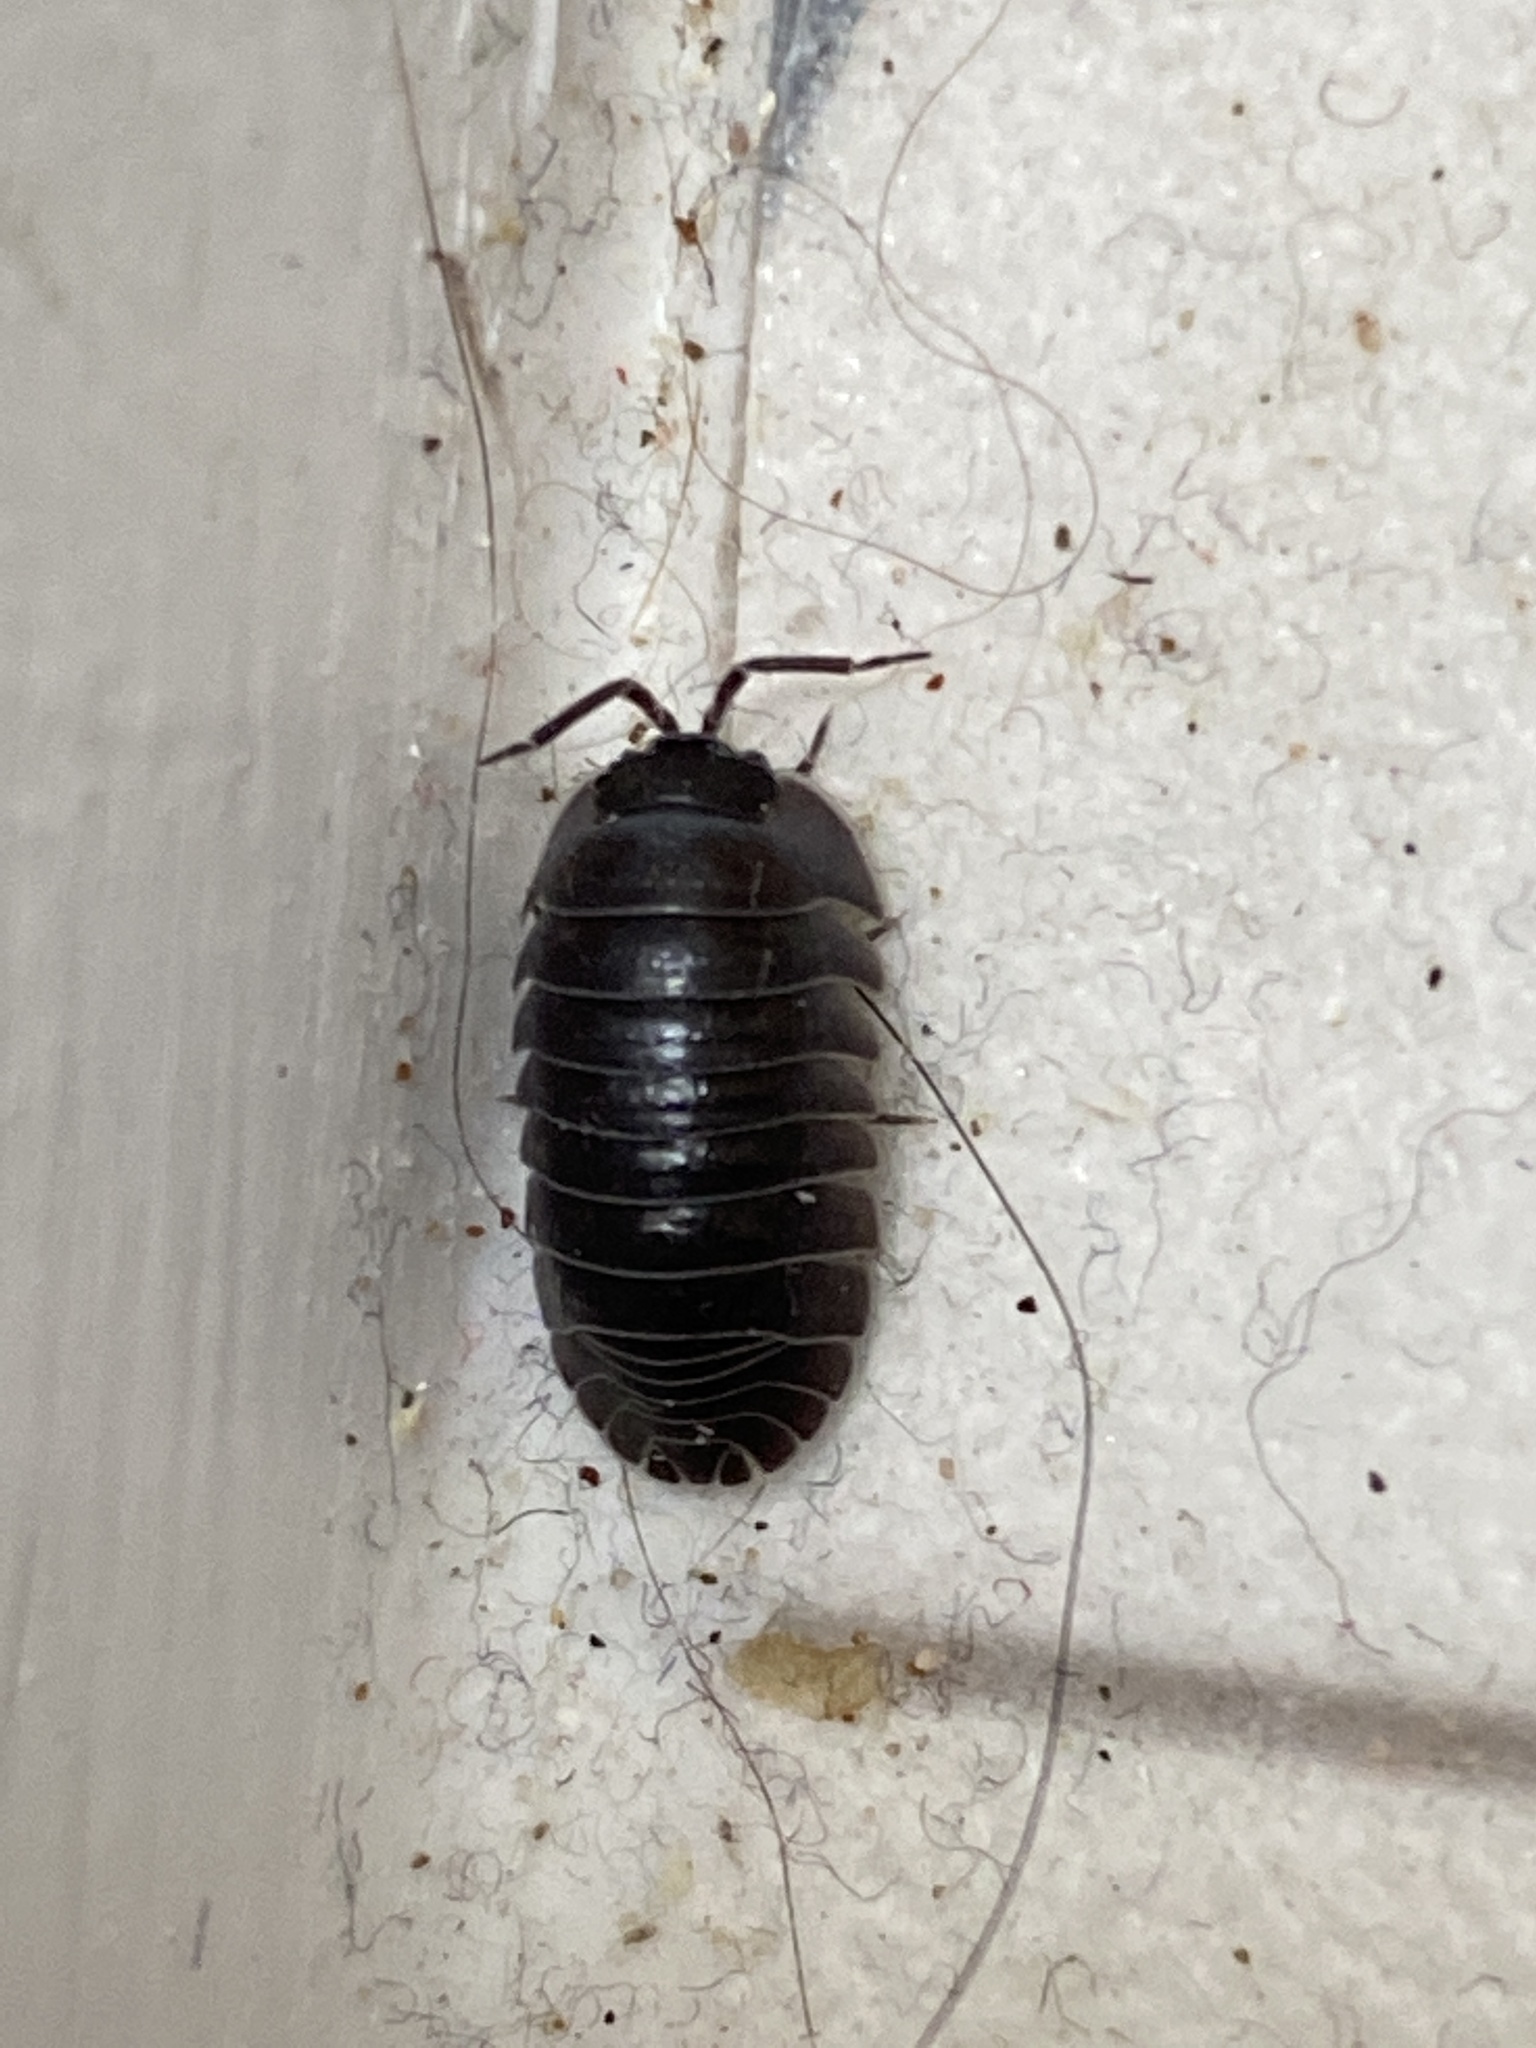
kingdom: Animalia
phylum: Arthropoda
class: Malacostraca
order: Isopoda
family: Armadillidiidae
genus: Armadillidium
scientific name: Armadillidium depressum
